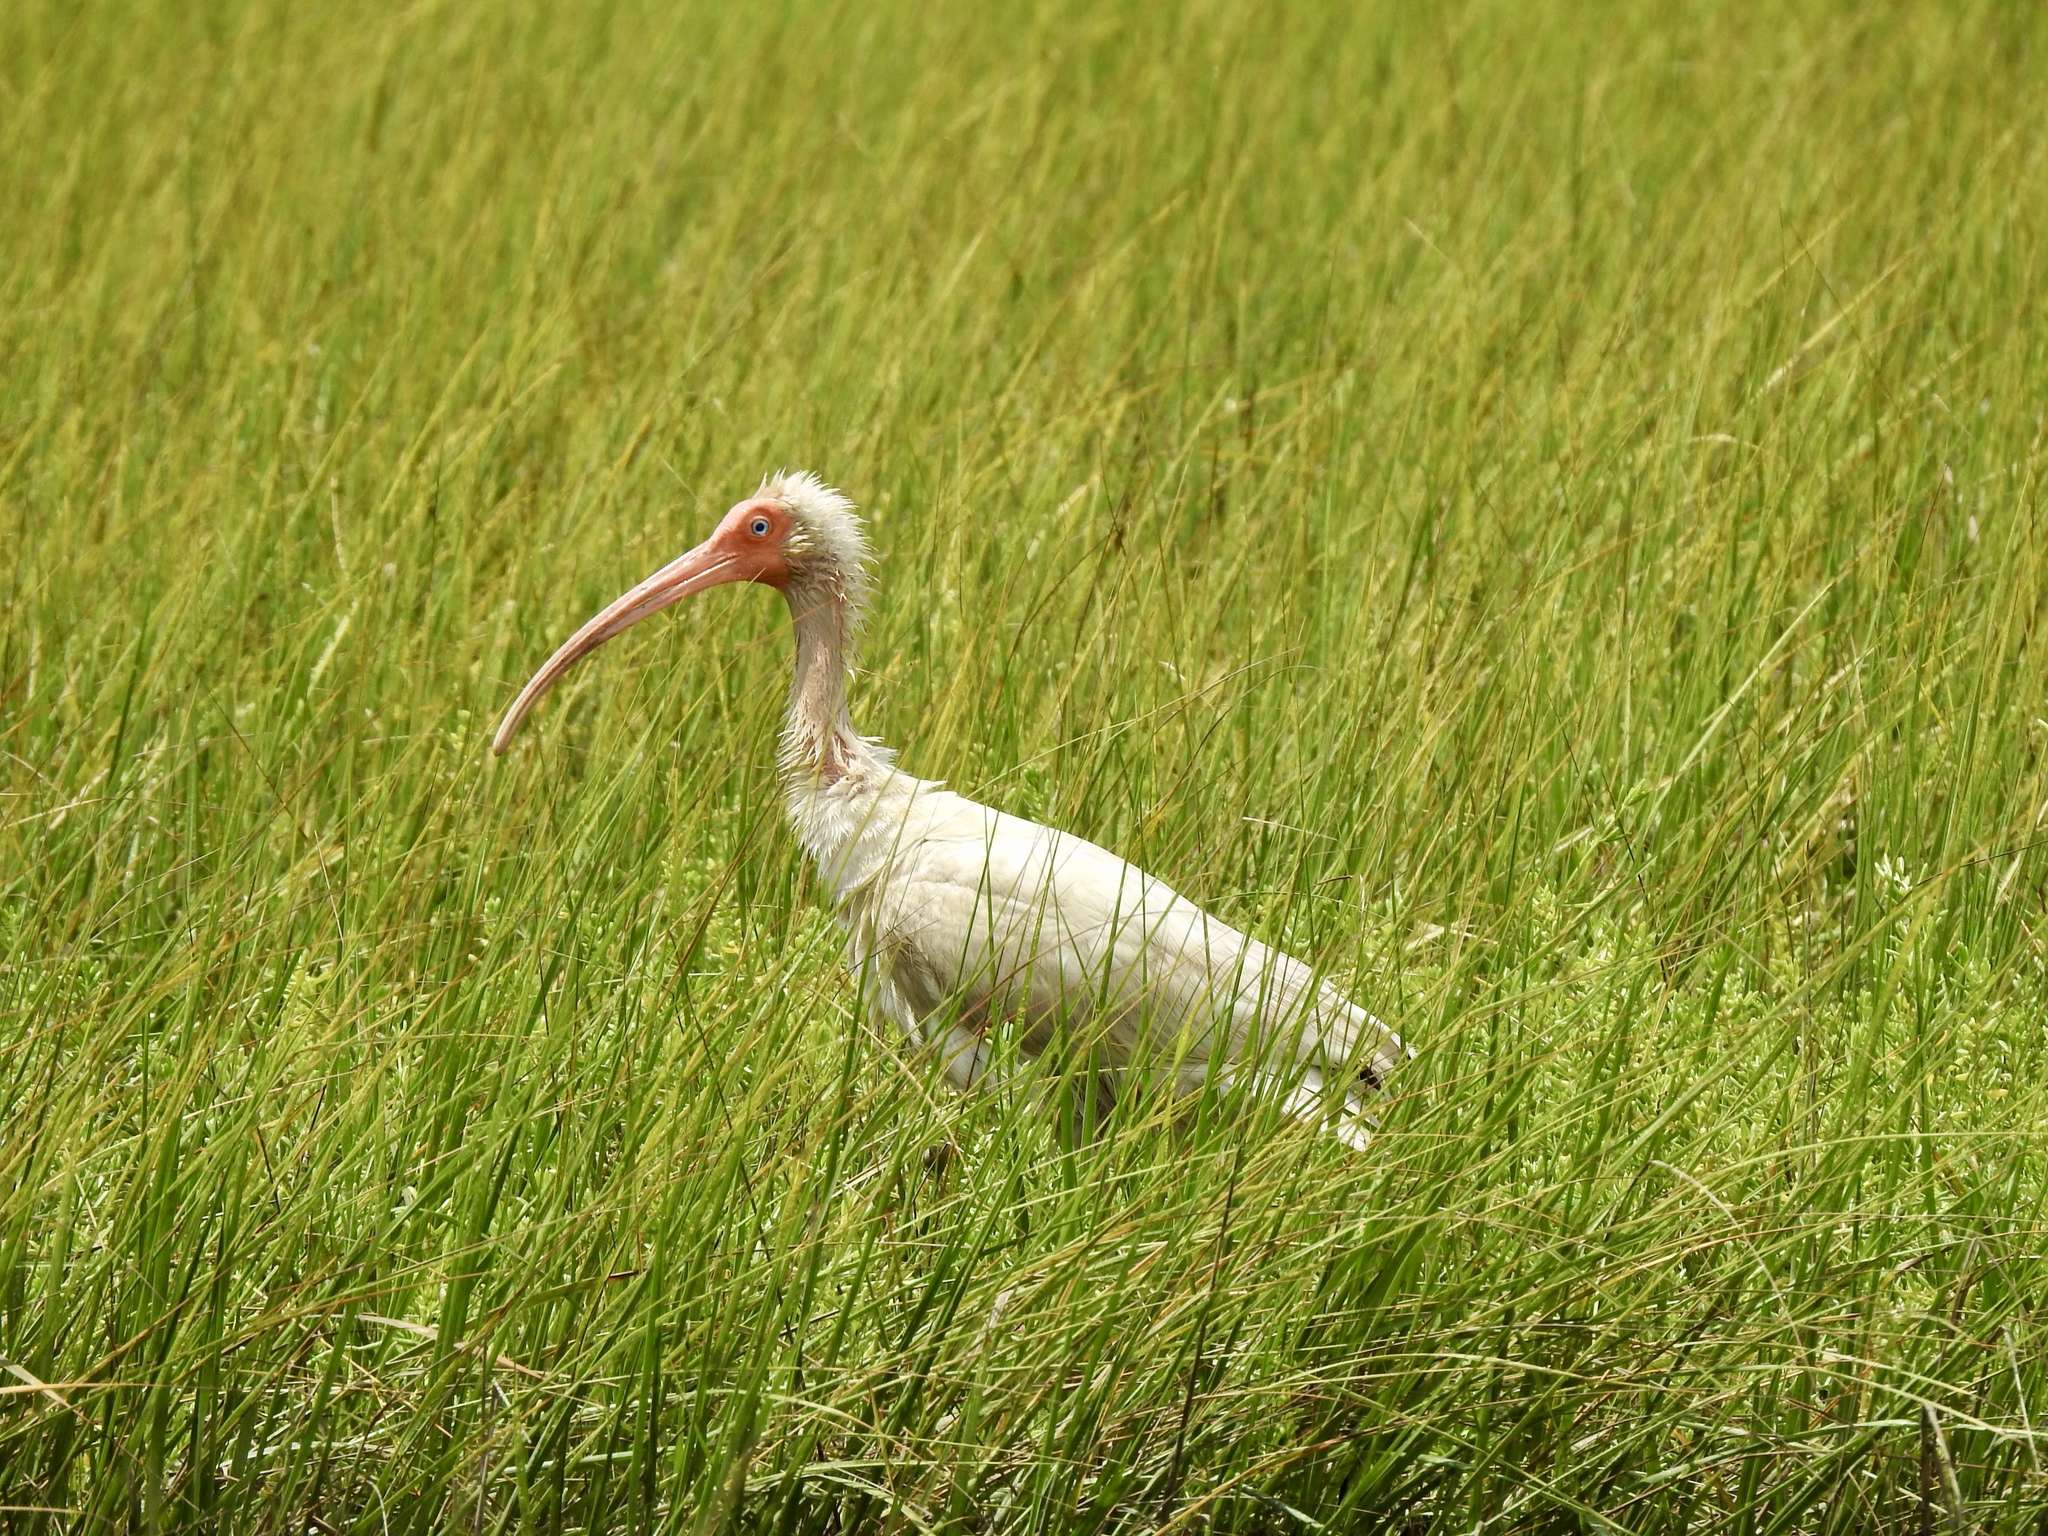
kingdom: Animalia
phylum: Chordata
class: Aves
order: Pelecaniformes
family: Threskiornithidae
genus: Eudocimus
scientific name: Eudocimus albus
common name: White ibis
